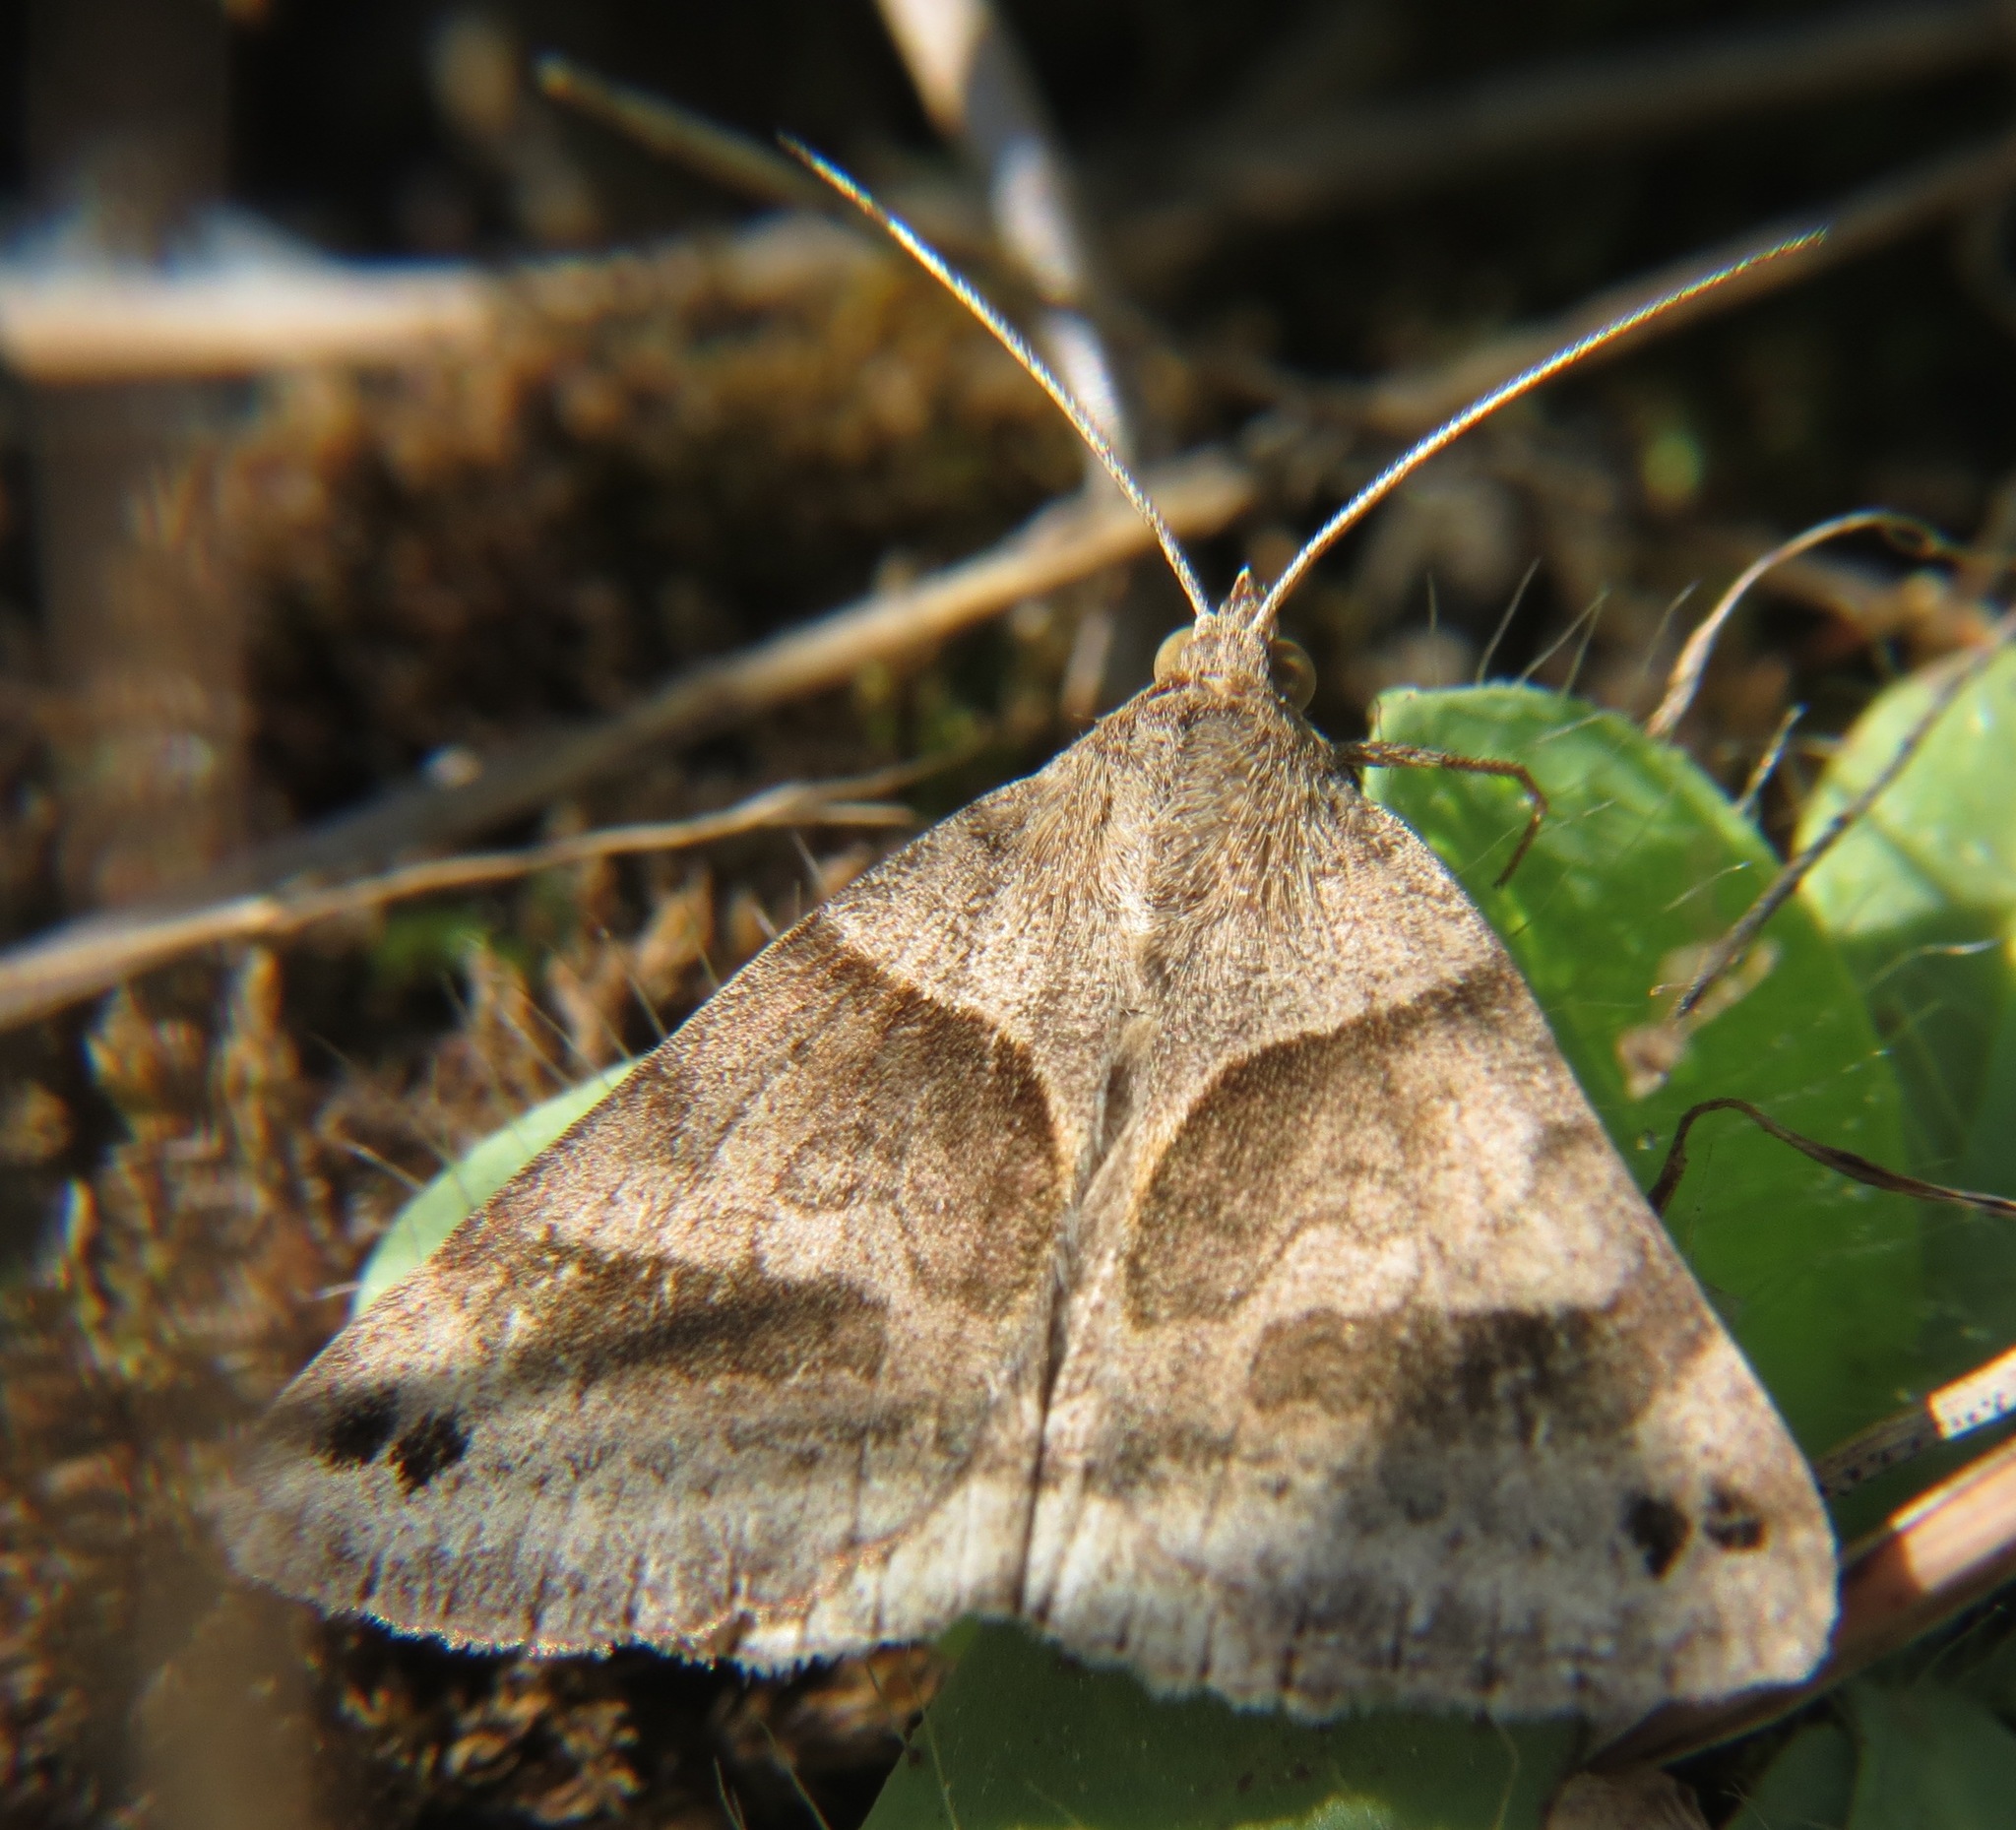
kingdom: Animalia
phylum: Arthropoda
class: Insecta
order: Lepidoptera
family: Erebidae
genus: Caenurgina
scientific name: Caenurgina erechtea
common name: Forage looper moth
